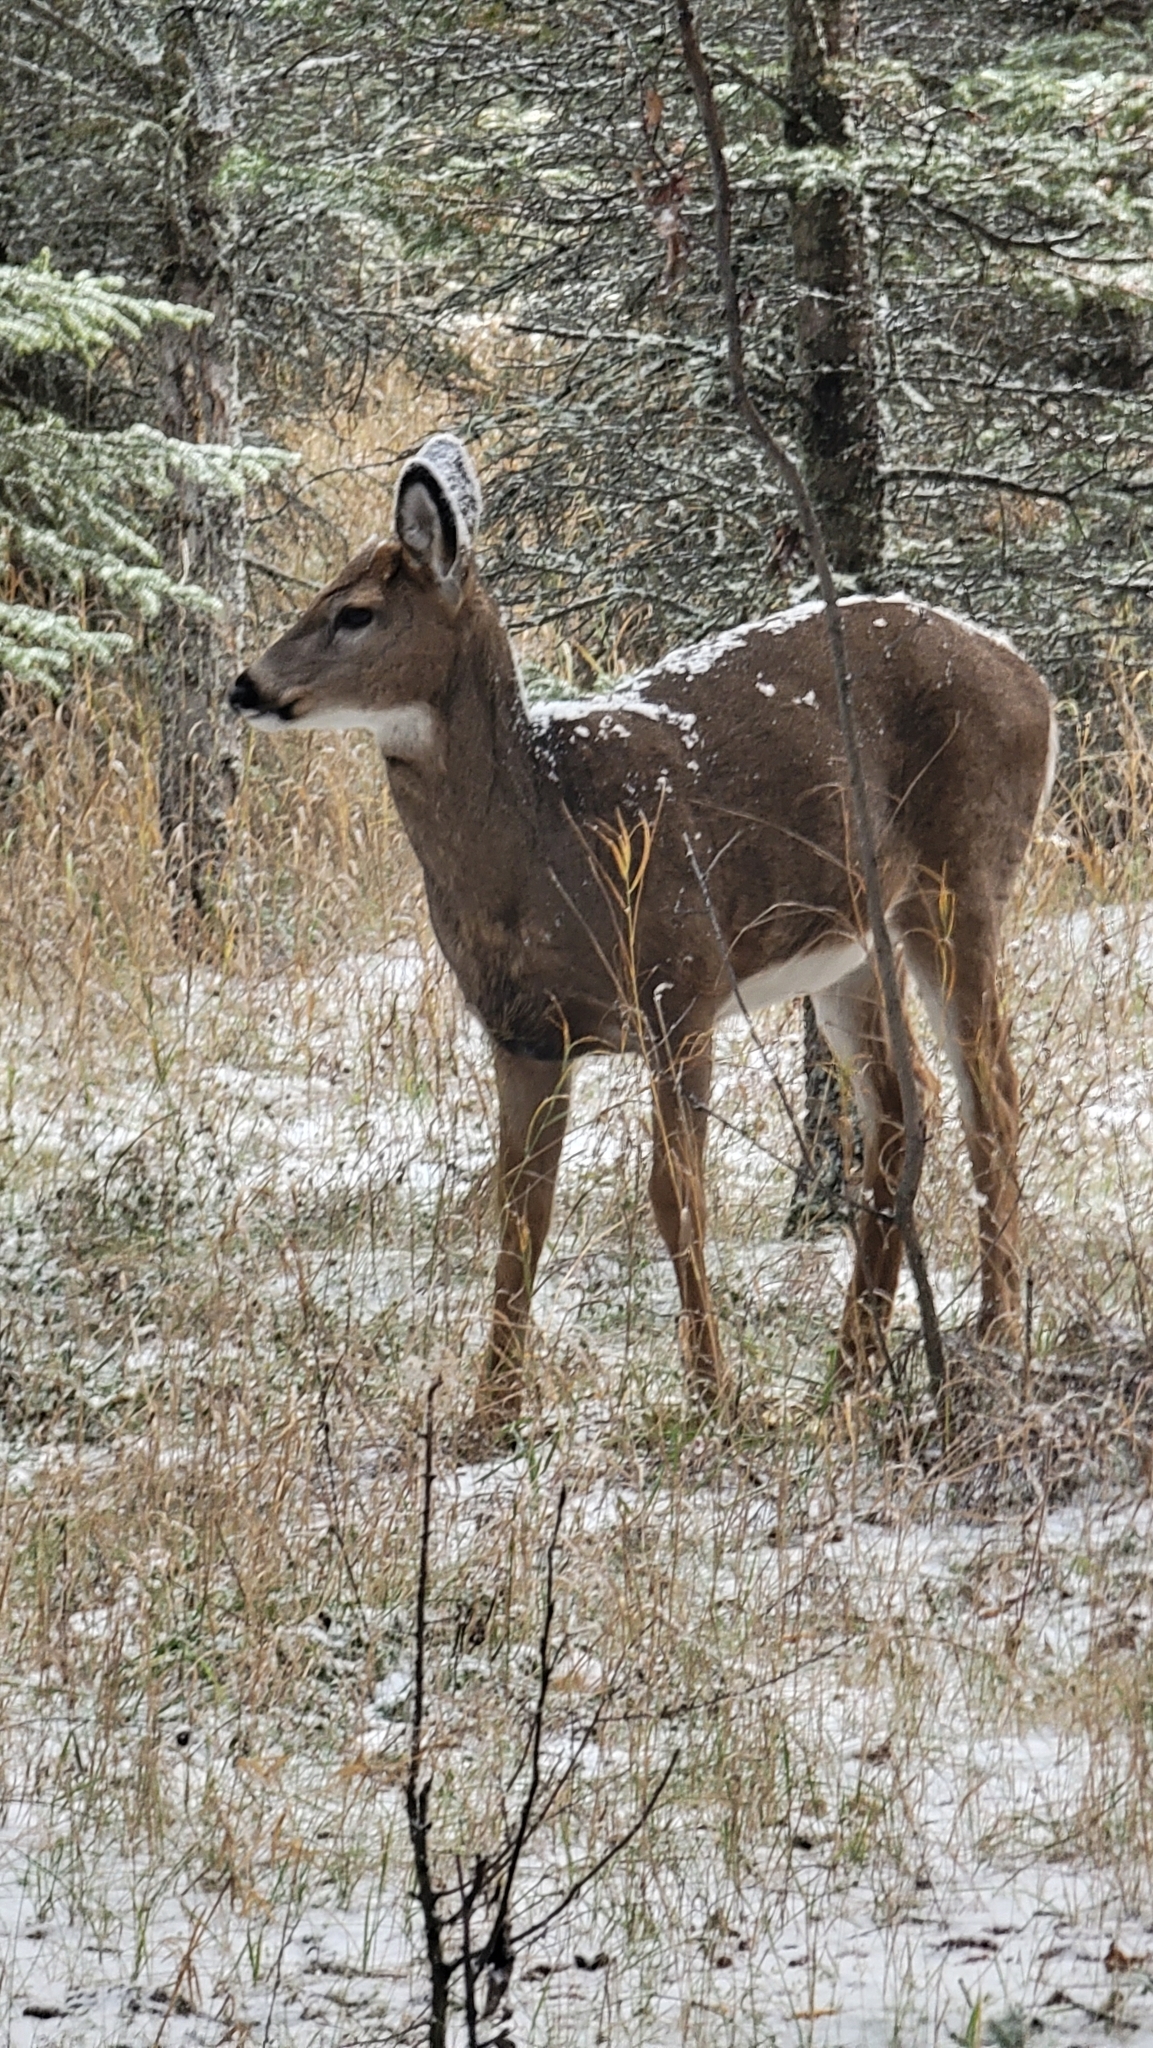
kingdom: Animalia
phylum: Chordata
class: Mammalia
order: Artiodactyla
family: Cervidae
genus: Odocoileus
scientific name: Odocoileus virginianus
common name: White-tailed deer
